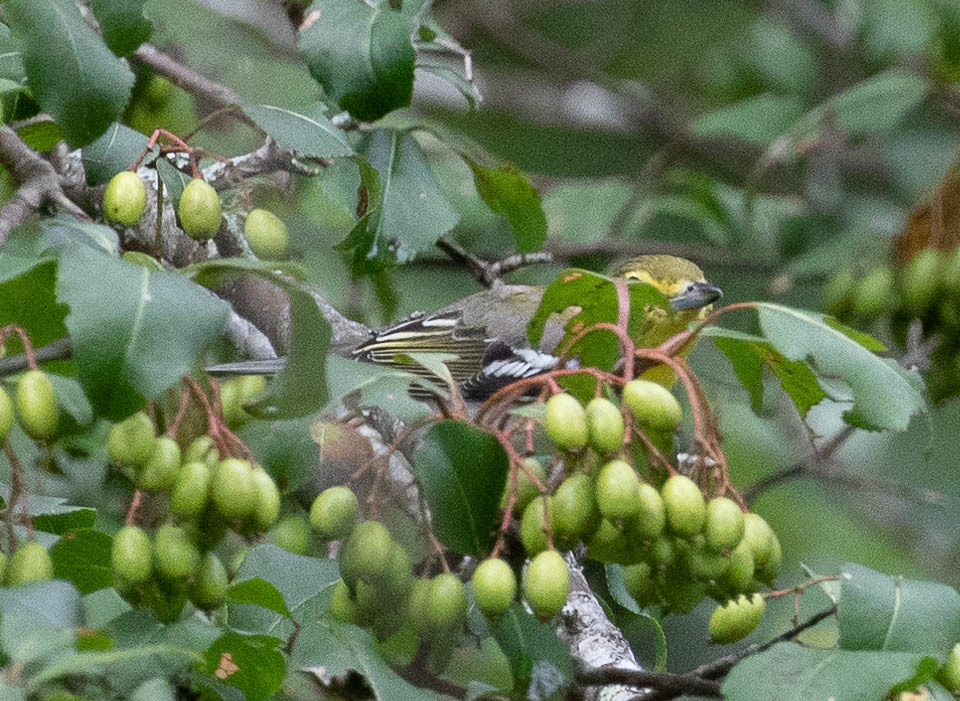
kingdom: Animalia
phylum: Chordata
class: Aves
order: Passeriformes
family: Vireonidae
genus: Vireo
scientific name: Vireo flavifrons
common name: Yellow-throated vireo
